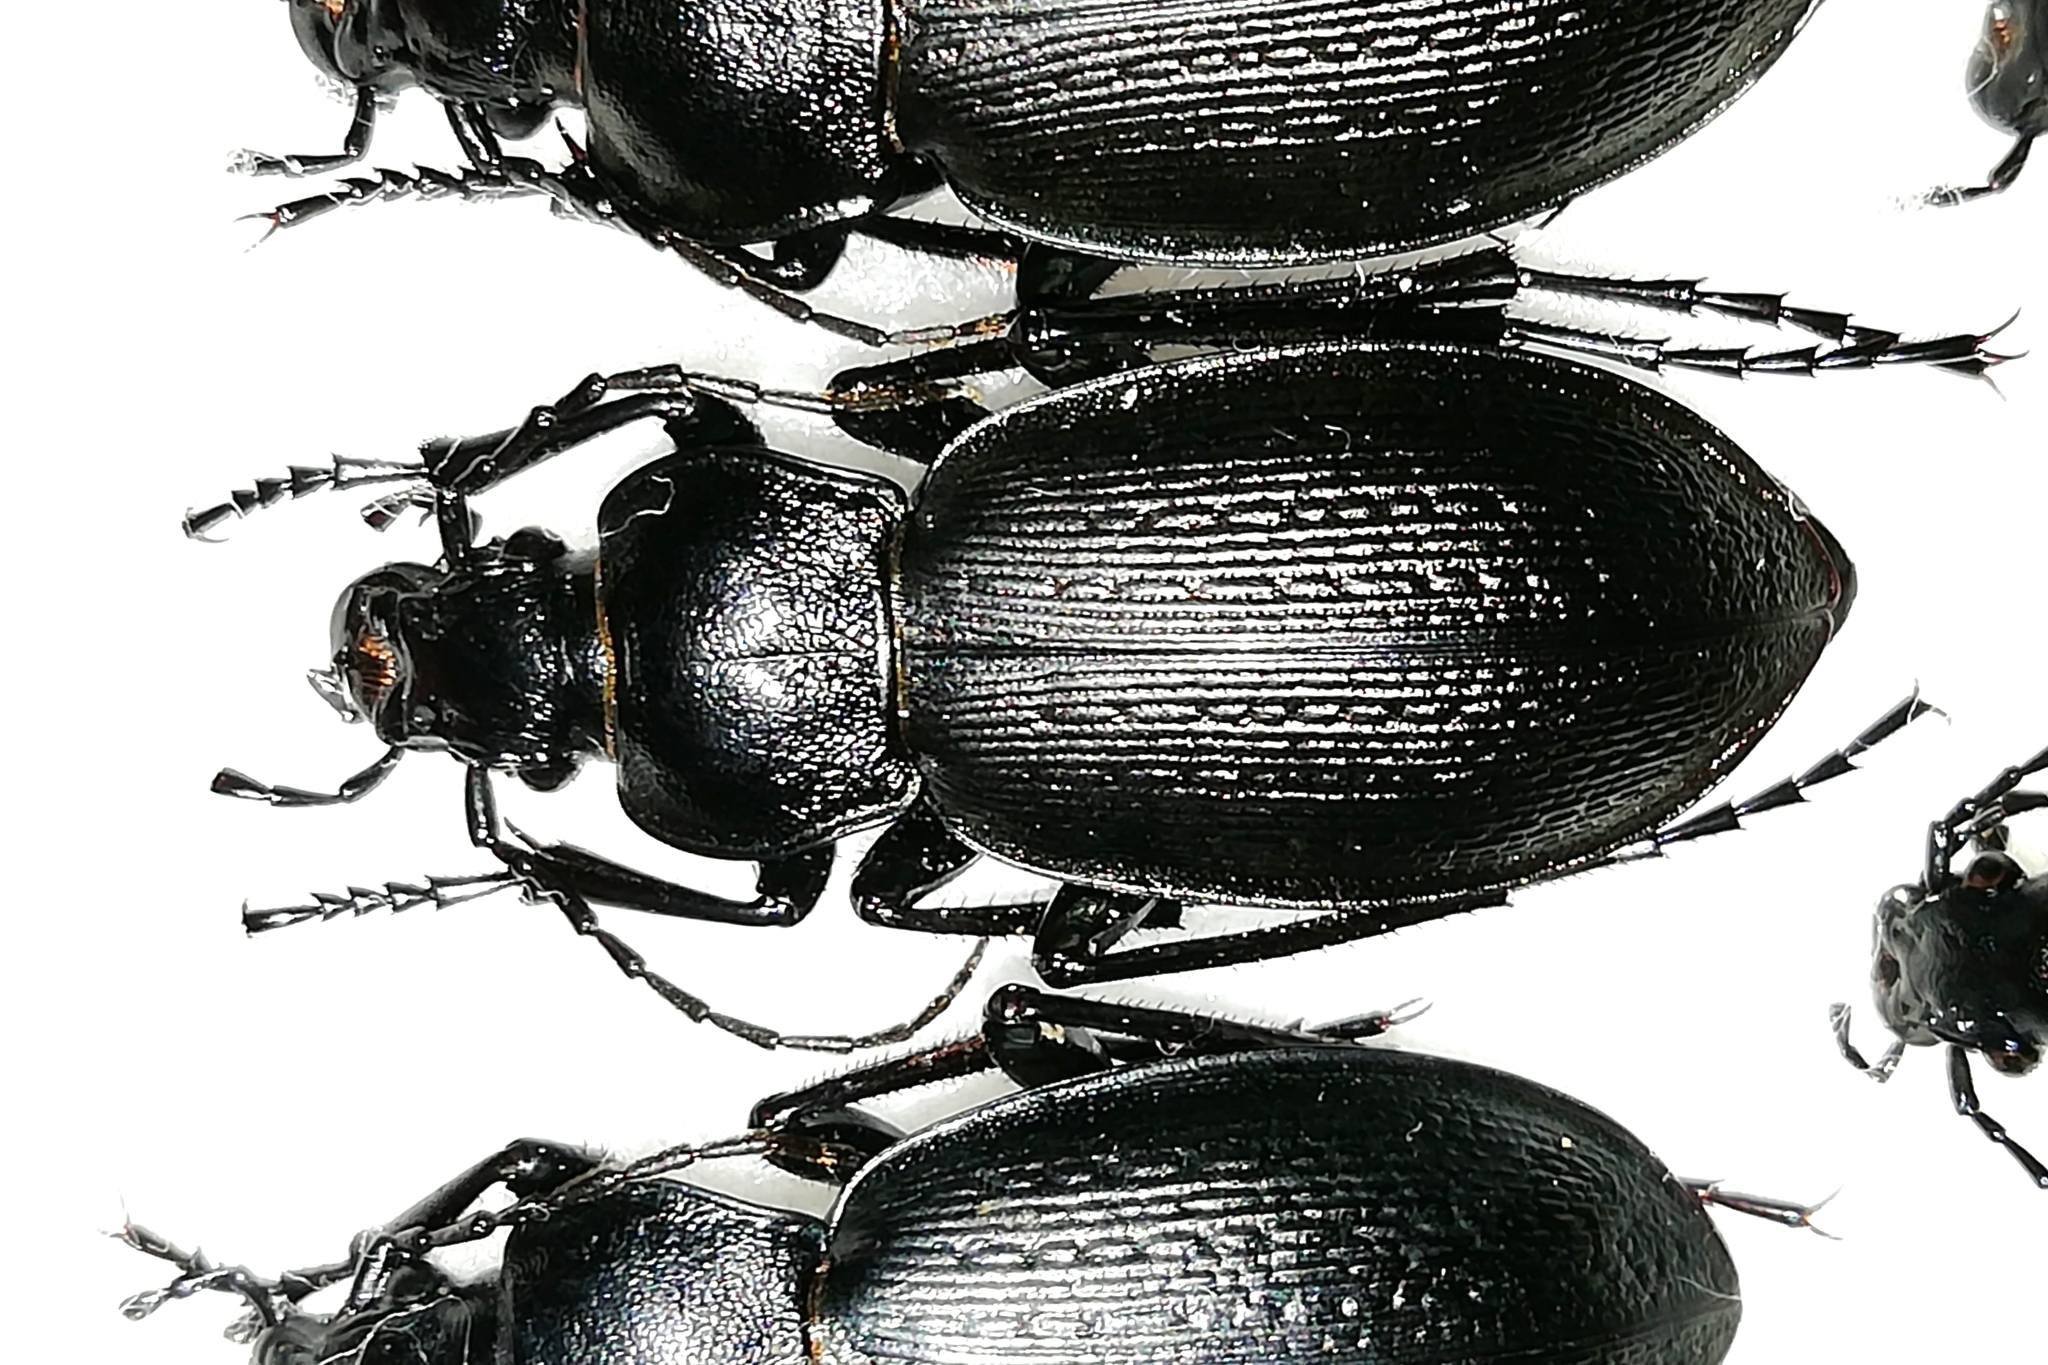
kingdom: Animalia
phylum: Arthropoda
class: Insecta
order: Coleoptera
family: Carabidae
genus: Carabus
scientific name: Carabus spasskianus
